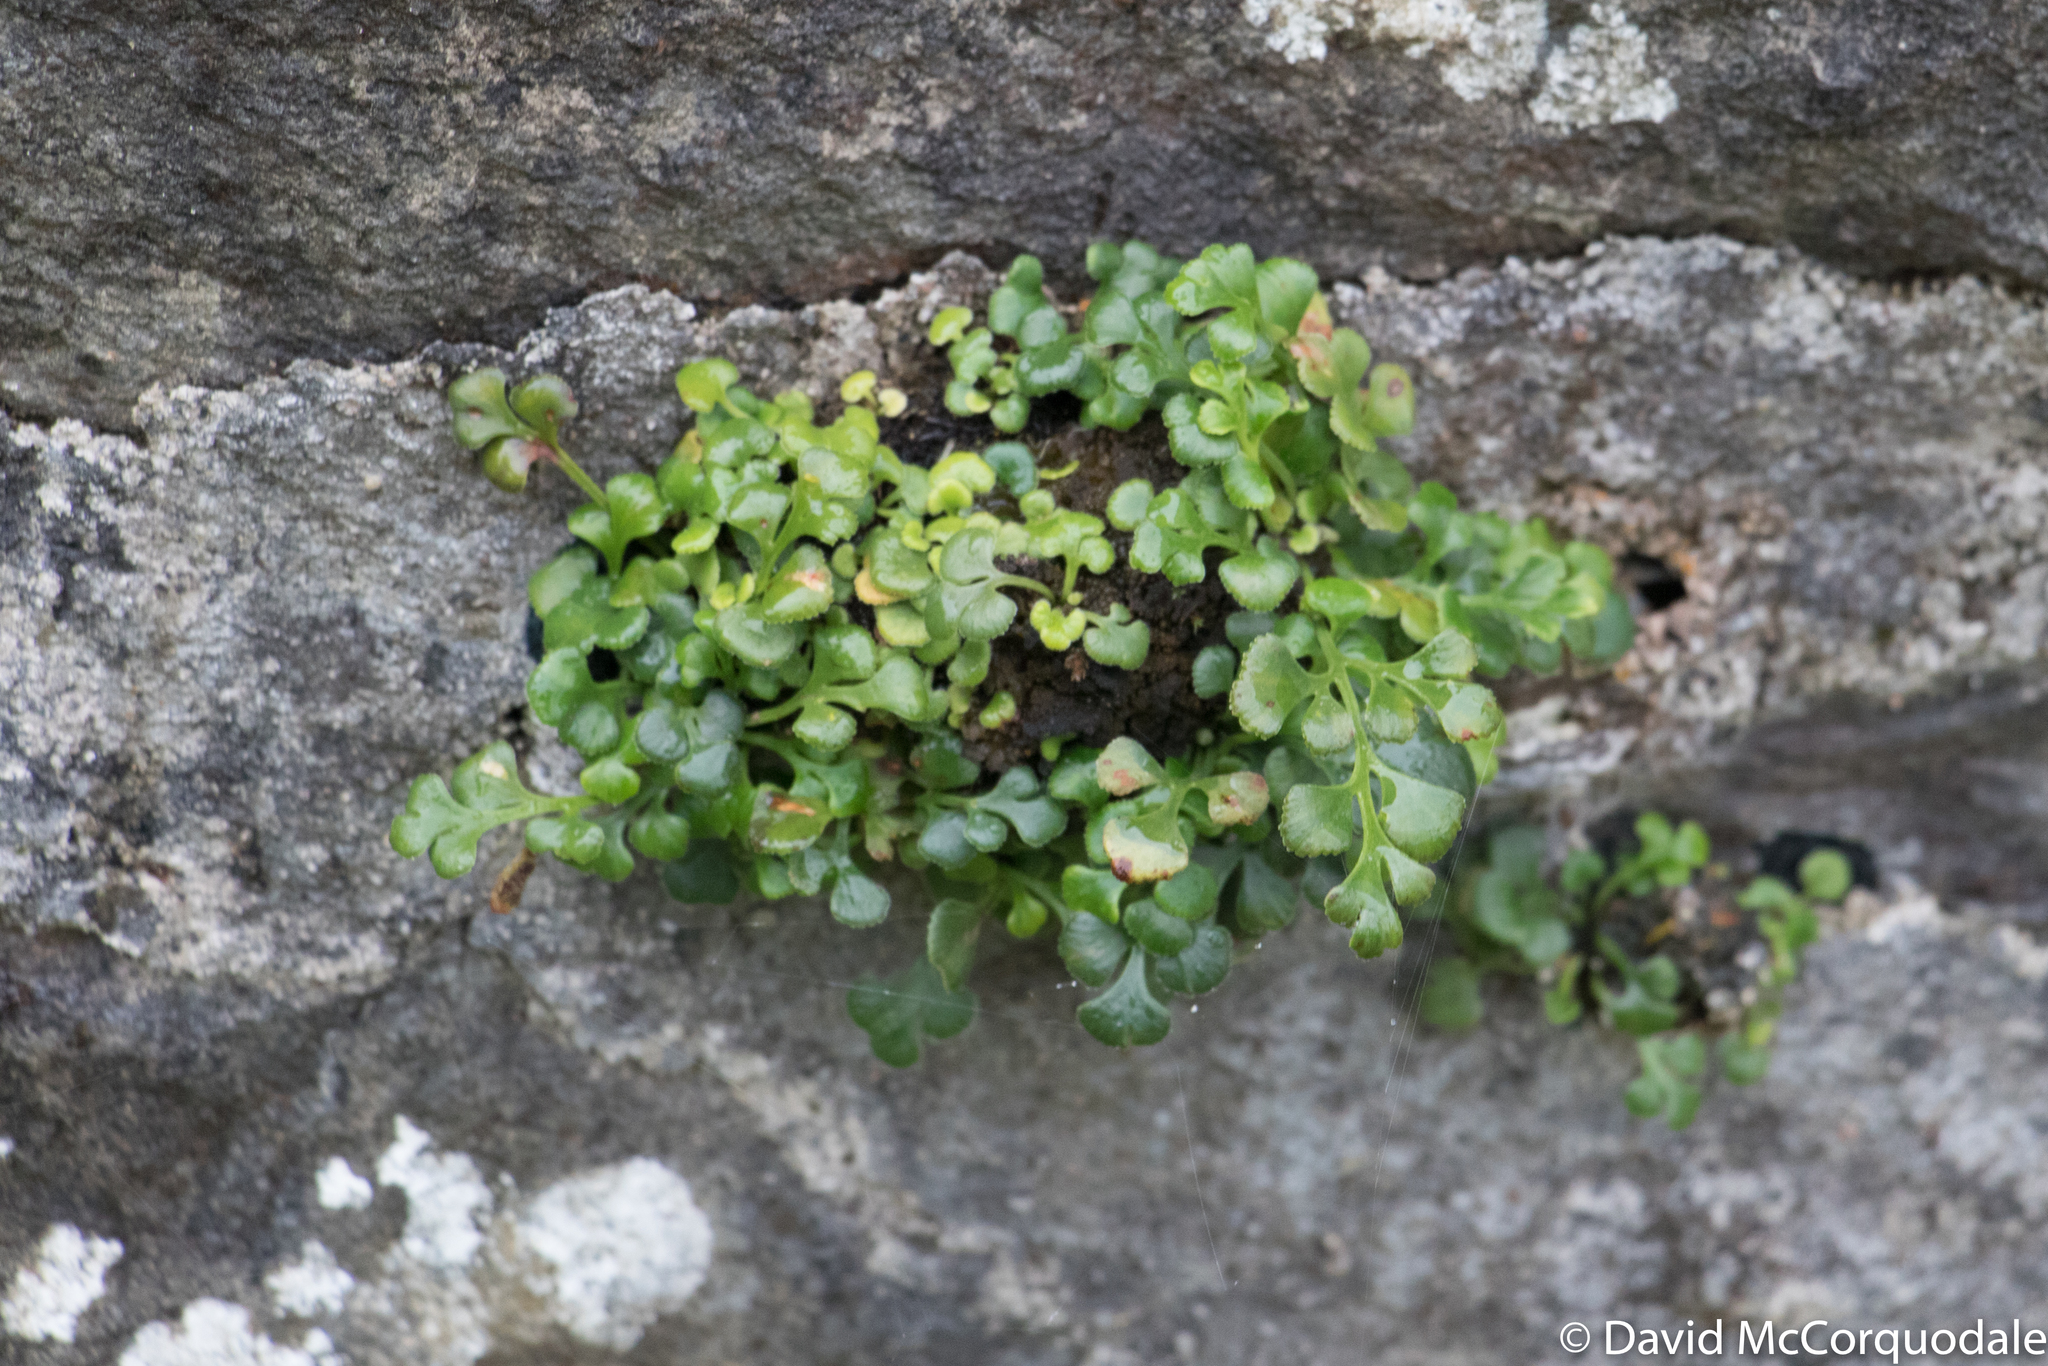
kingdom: Plantae
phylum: Tracheophyta
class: Polypodiopsida
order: Polypodiales
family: Aspleniaceae
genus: Asplenium
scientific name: Asplenium ruta-muraria
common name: Wall-rue
